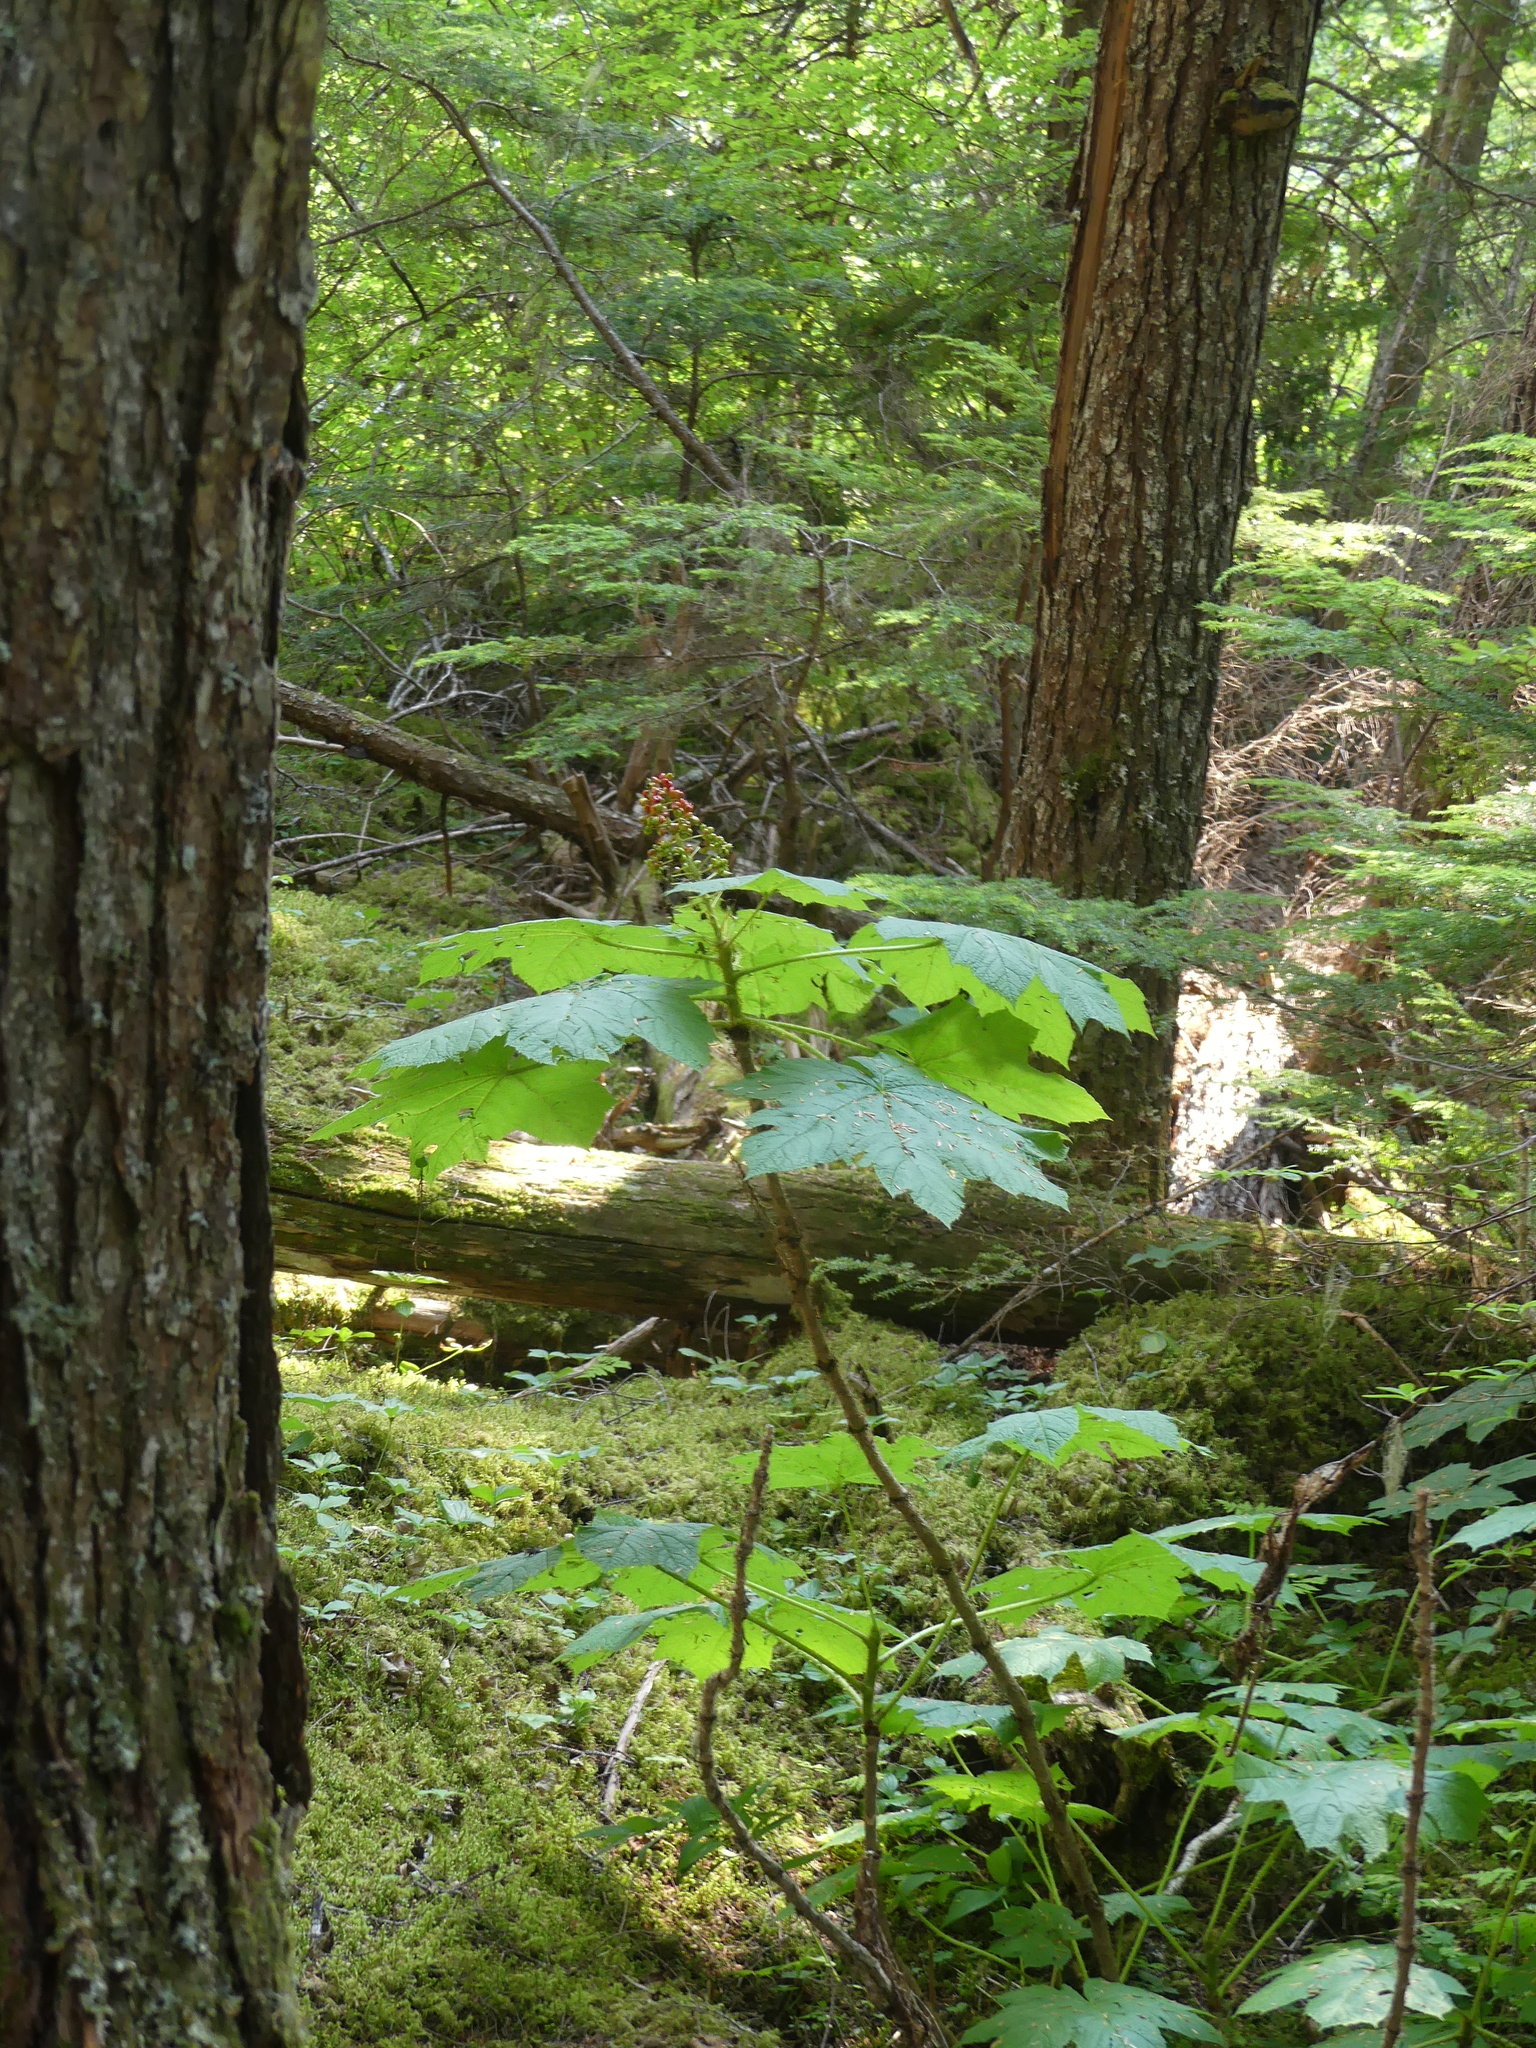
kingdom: Plantae
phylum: Tracheophyta
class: Magnoliopsida
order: Apiales
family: Araliaceae
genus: Oplopanax
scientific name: Oplopanax horridus
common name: Devil's walking-stick
